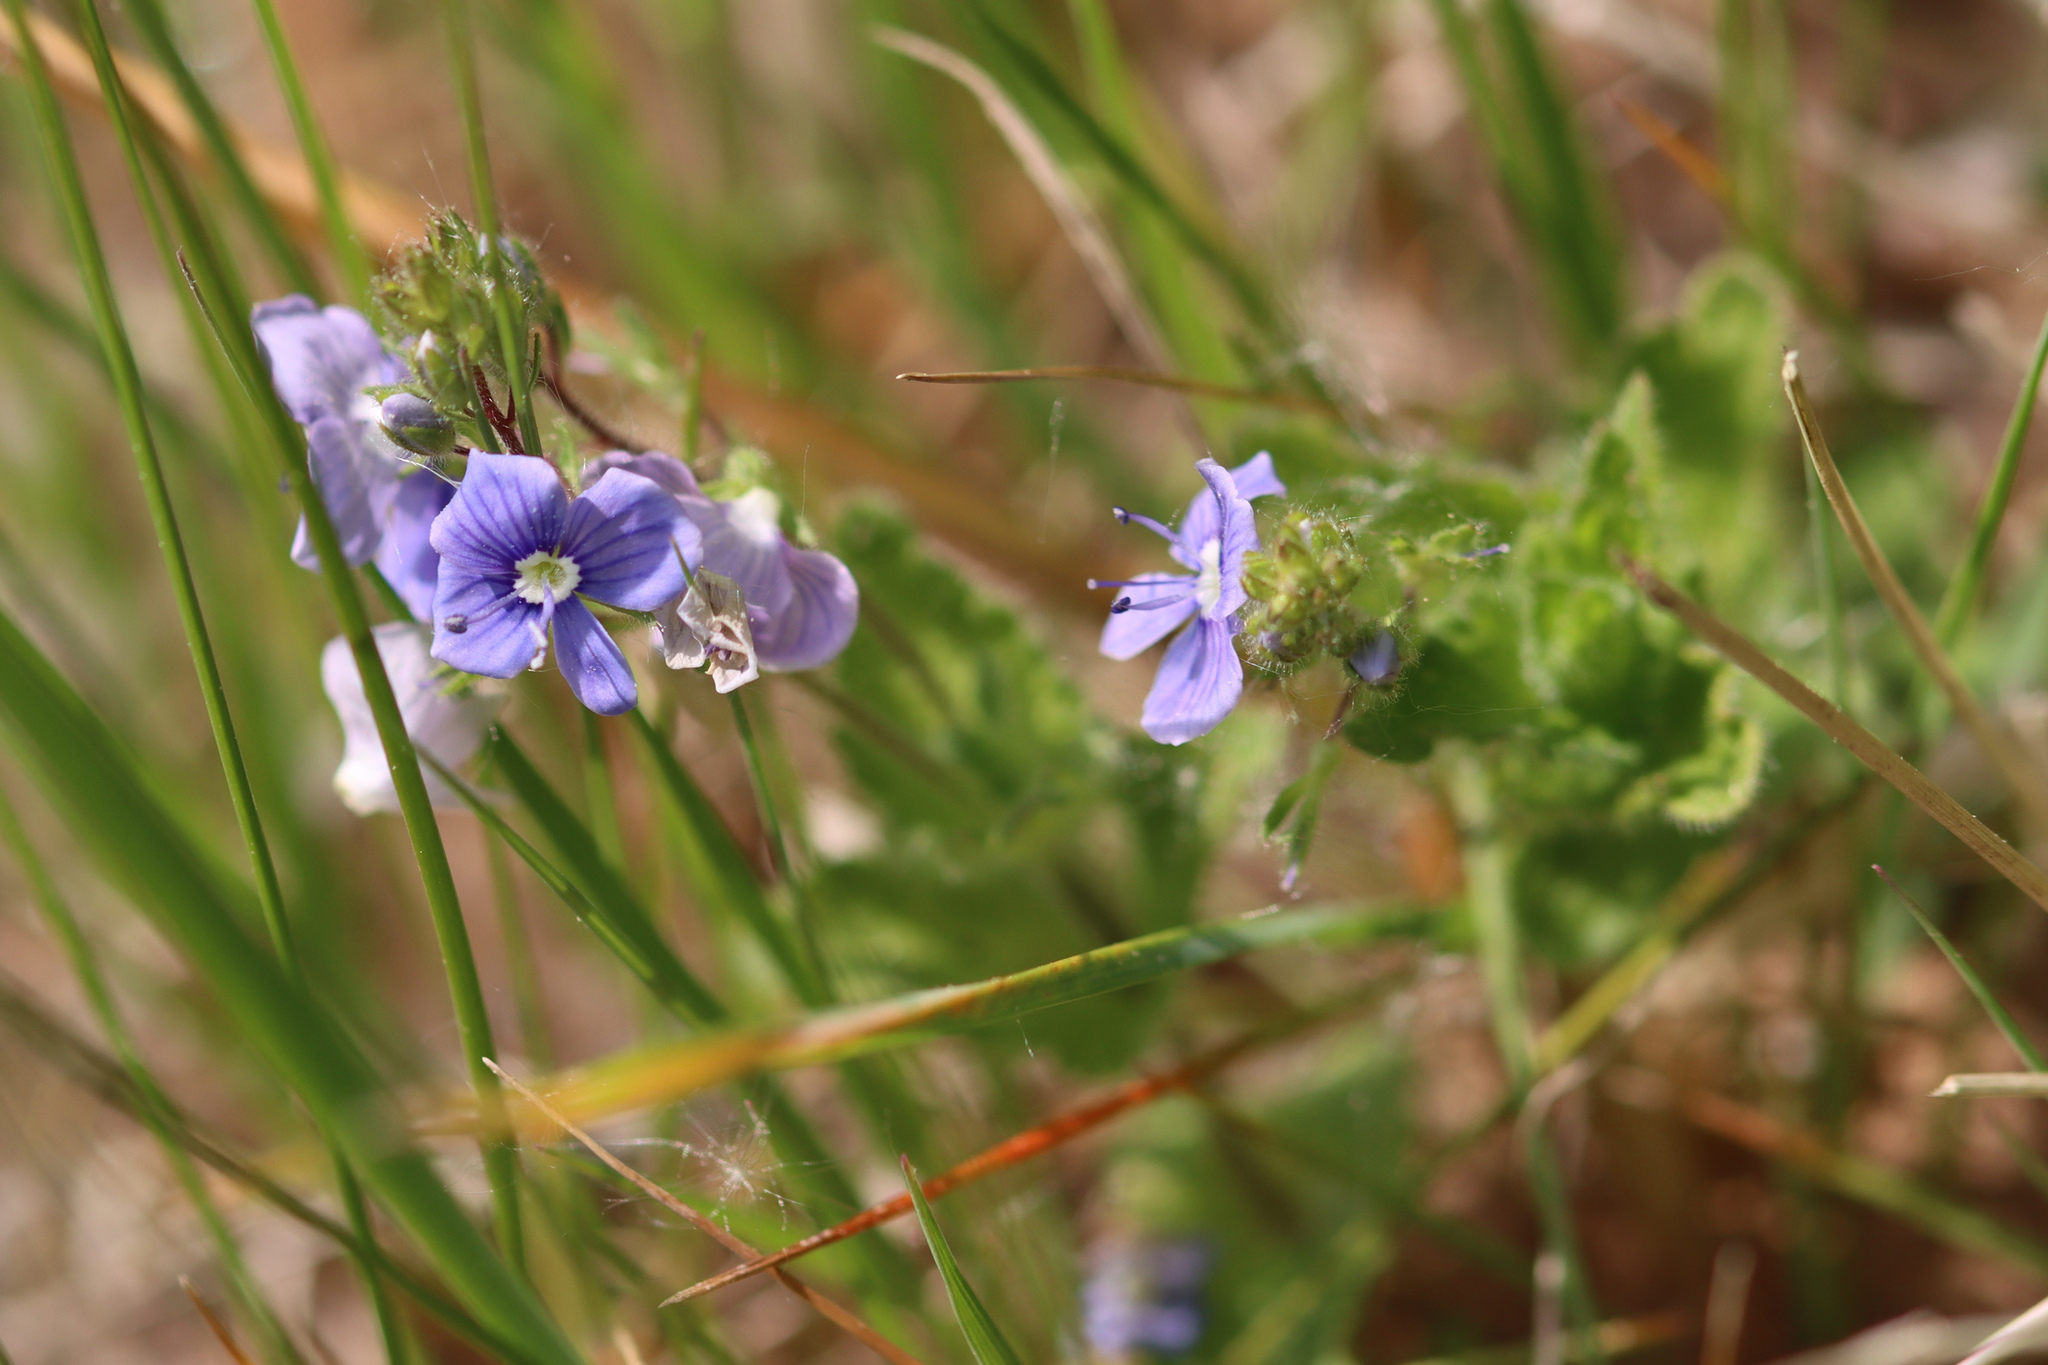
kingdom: Plantae
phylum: Tracheophyta
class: Magnoliopsida
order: Lamiales
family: Plantaginaceae
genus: Veronica
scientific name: Veronica chamaedrys
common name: Germander speedwell
